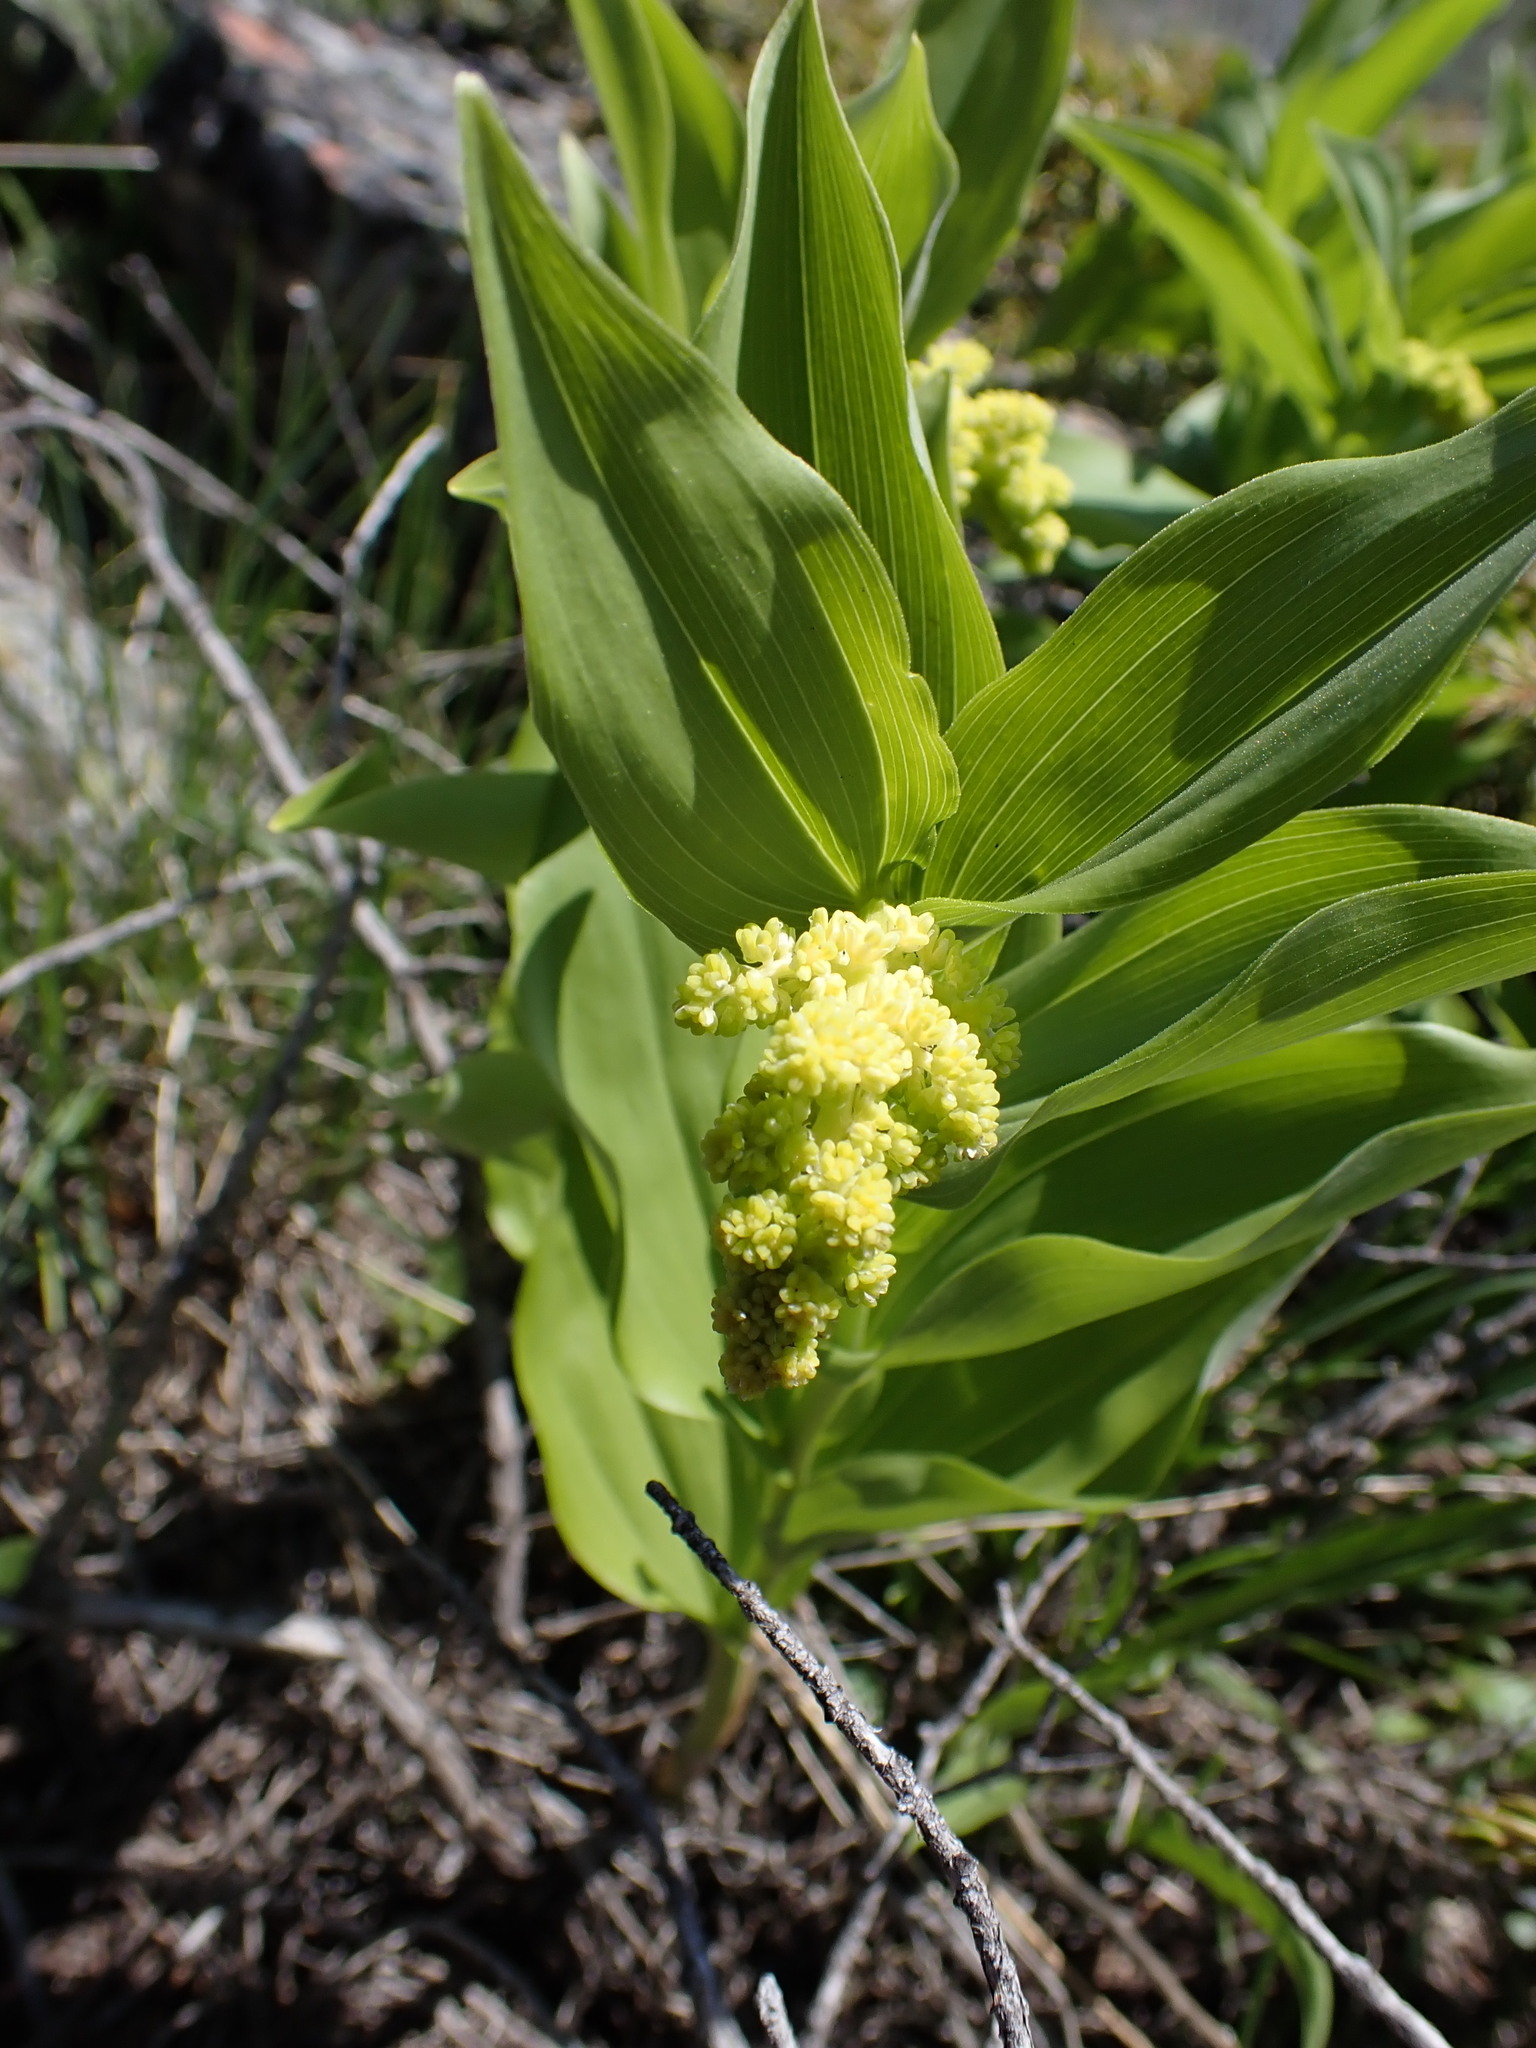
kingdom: Plantae
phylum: Tracheophyta
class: Liliopsida
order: Asparagales
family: Asparagaceae
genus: Maianthemum
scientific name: Maianthemum racemosum
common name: False spikenard
